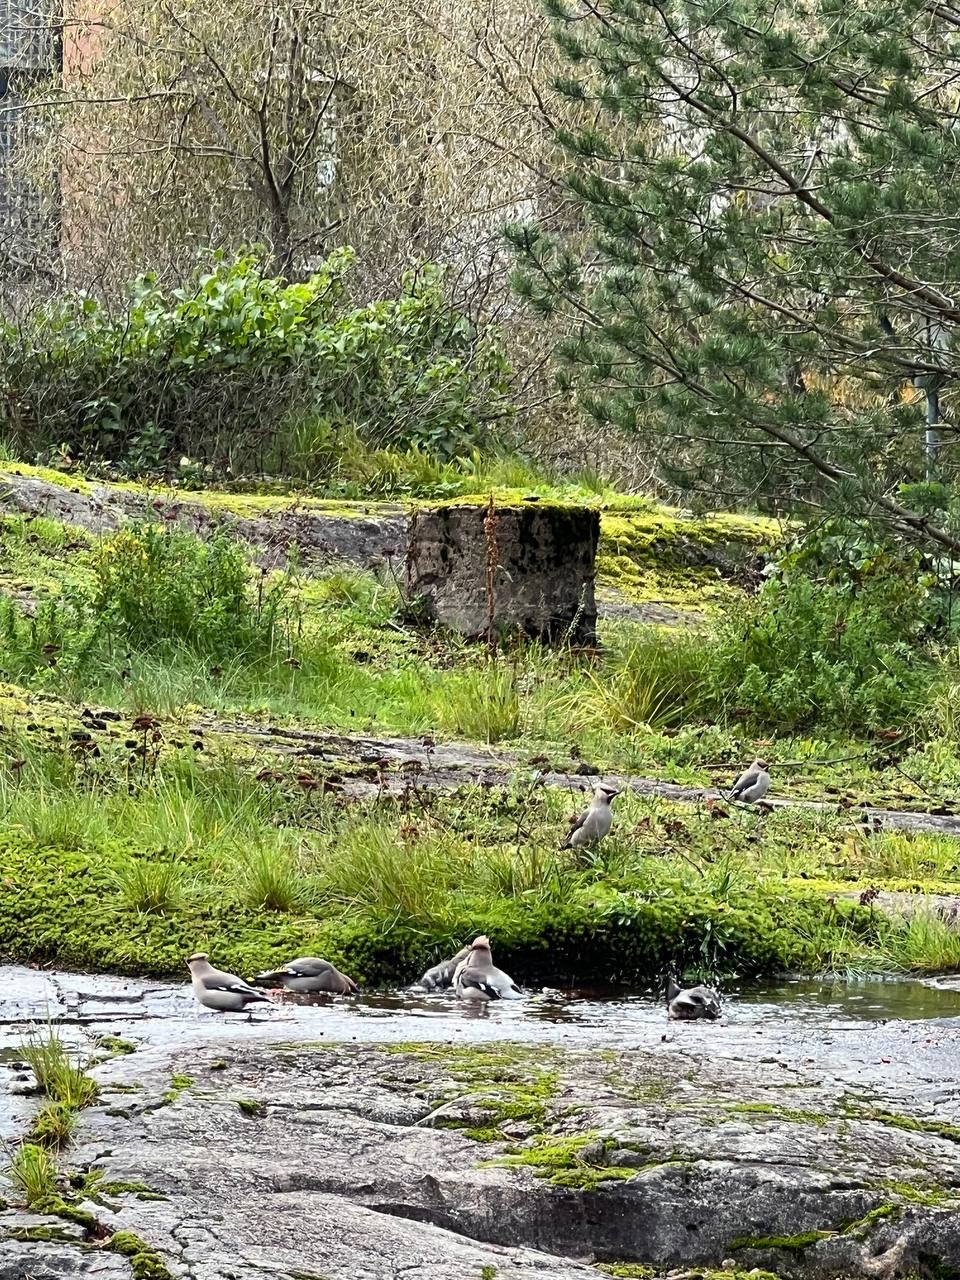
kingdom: Animalia
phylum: Chordata
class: Aves
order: Passeriformes
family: Bombycillidae
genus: Bombycilla
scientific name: Bombycilla garrulus
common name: Bohemian waxwing
